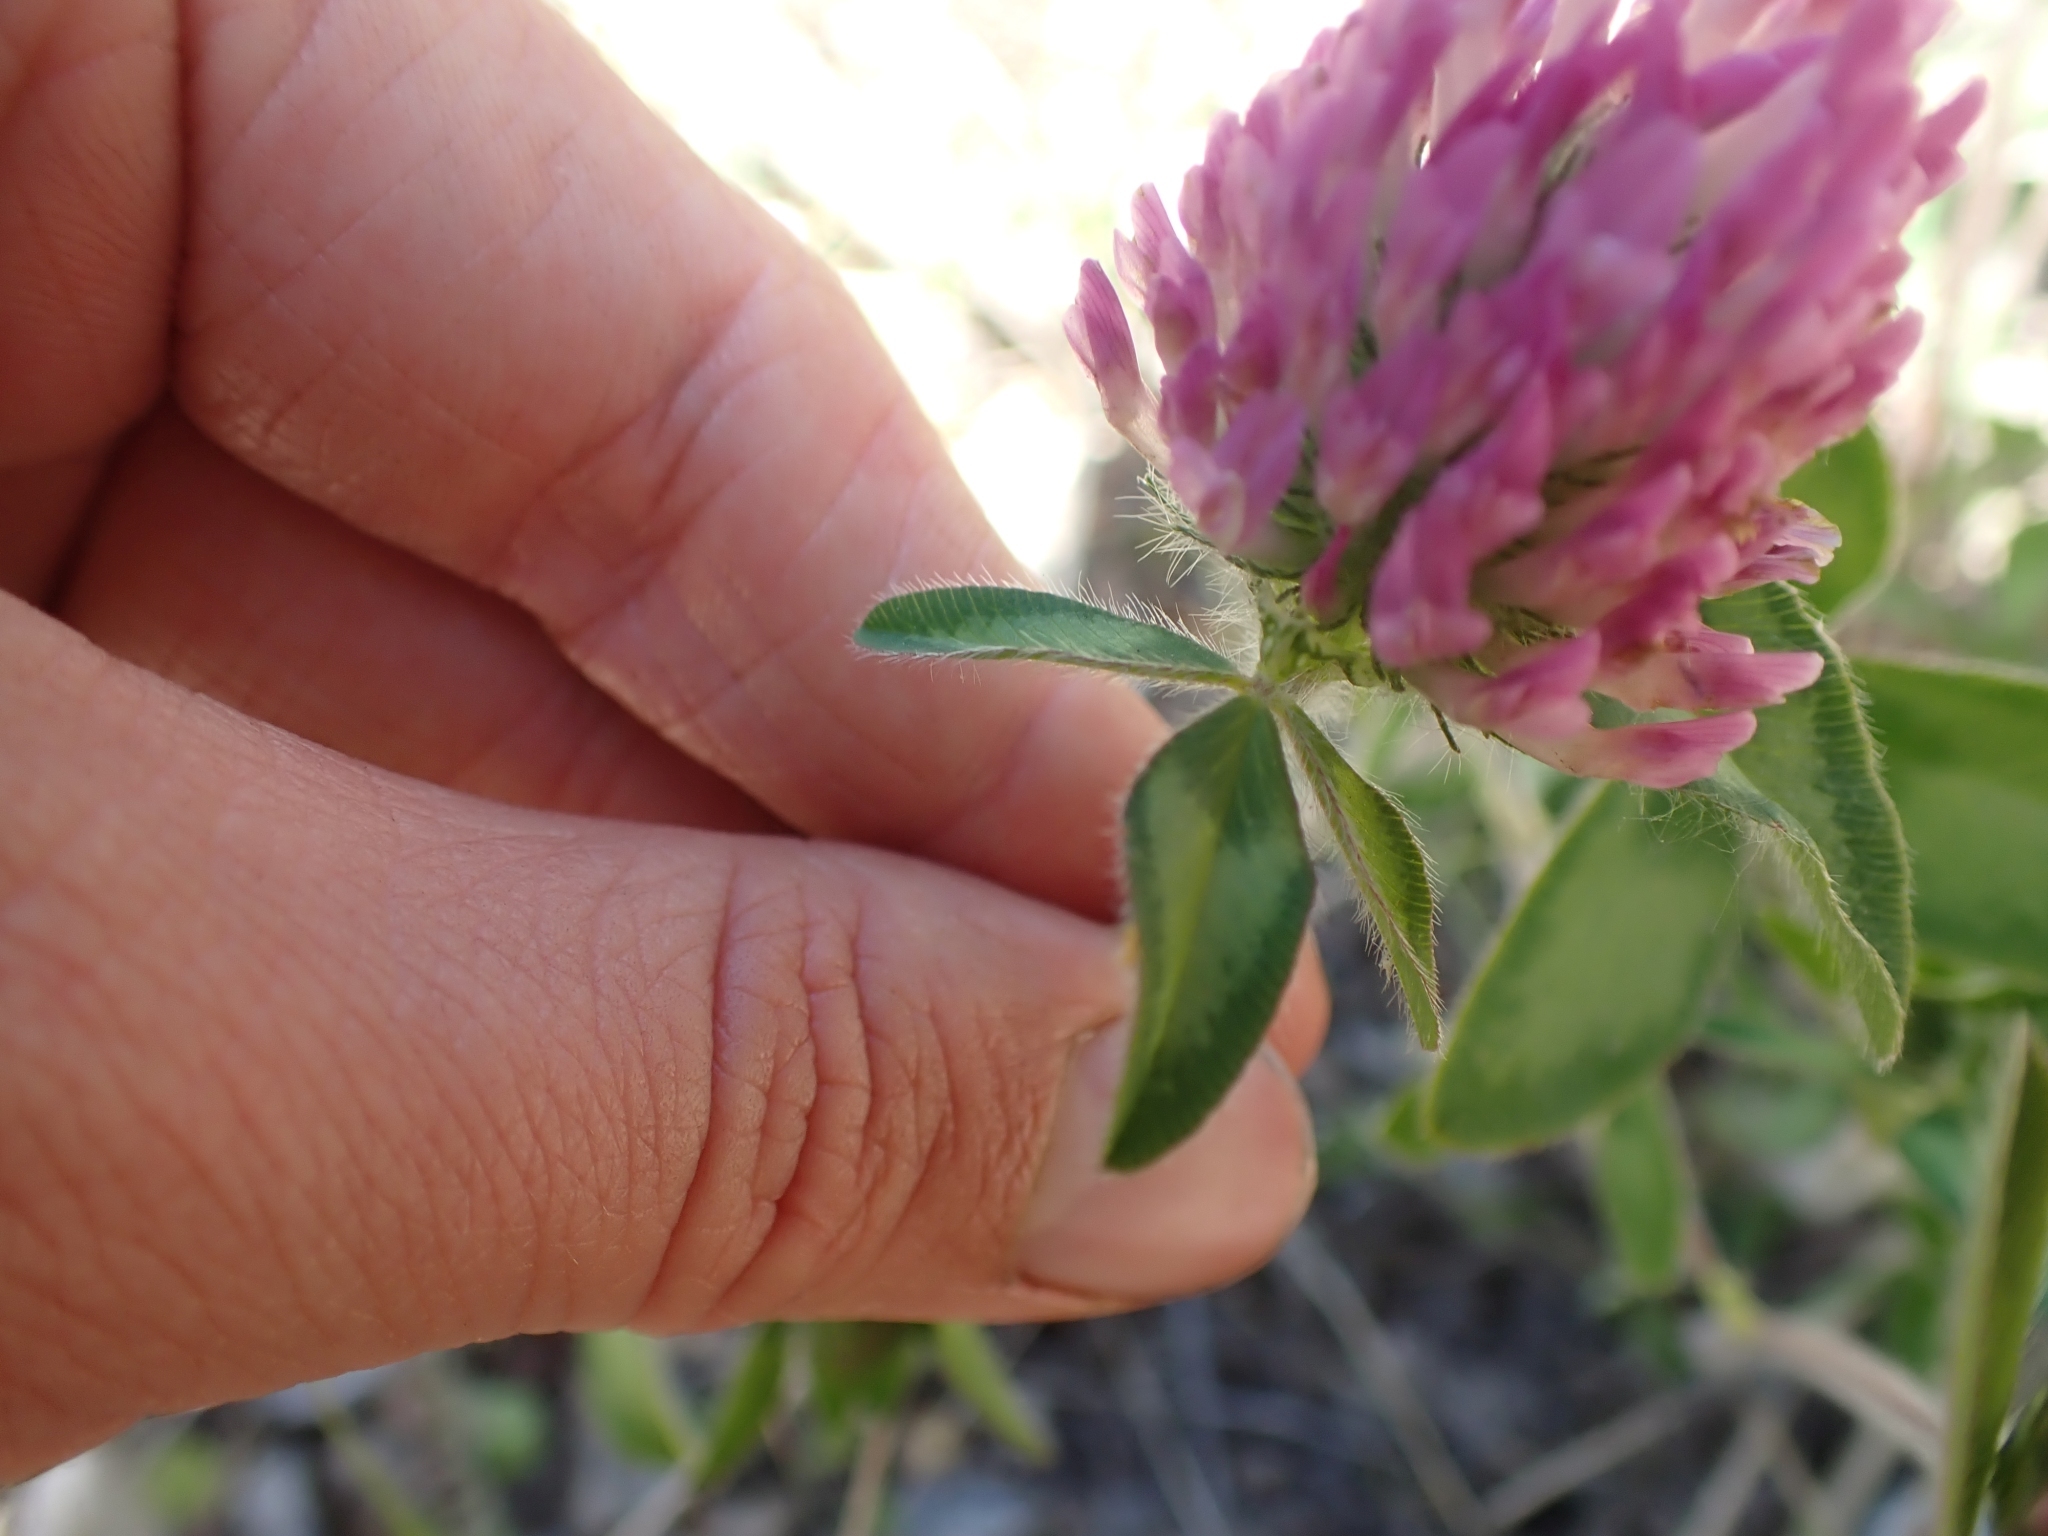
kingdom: Plantae
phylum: Tracheophyta
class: Magnoliopsida
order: Fabales
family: Fabaceae
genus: Trifolium
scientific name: Trifolium pratense
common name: Red clover
